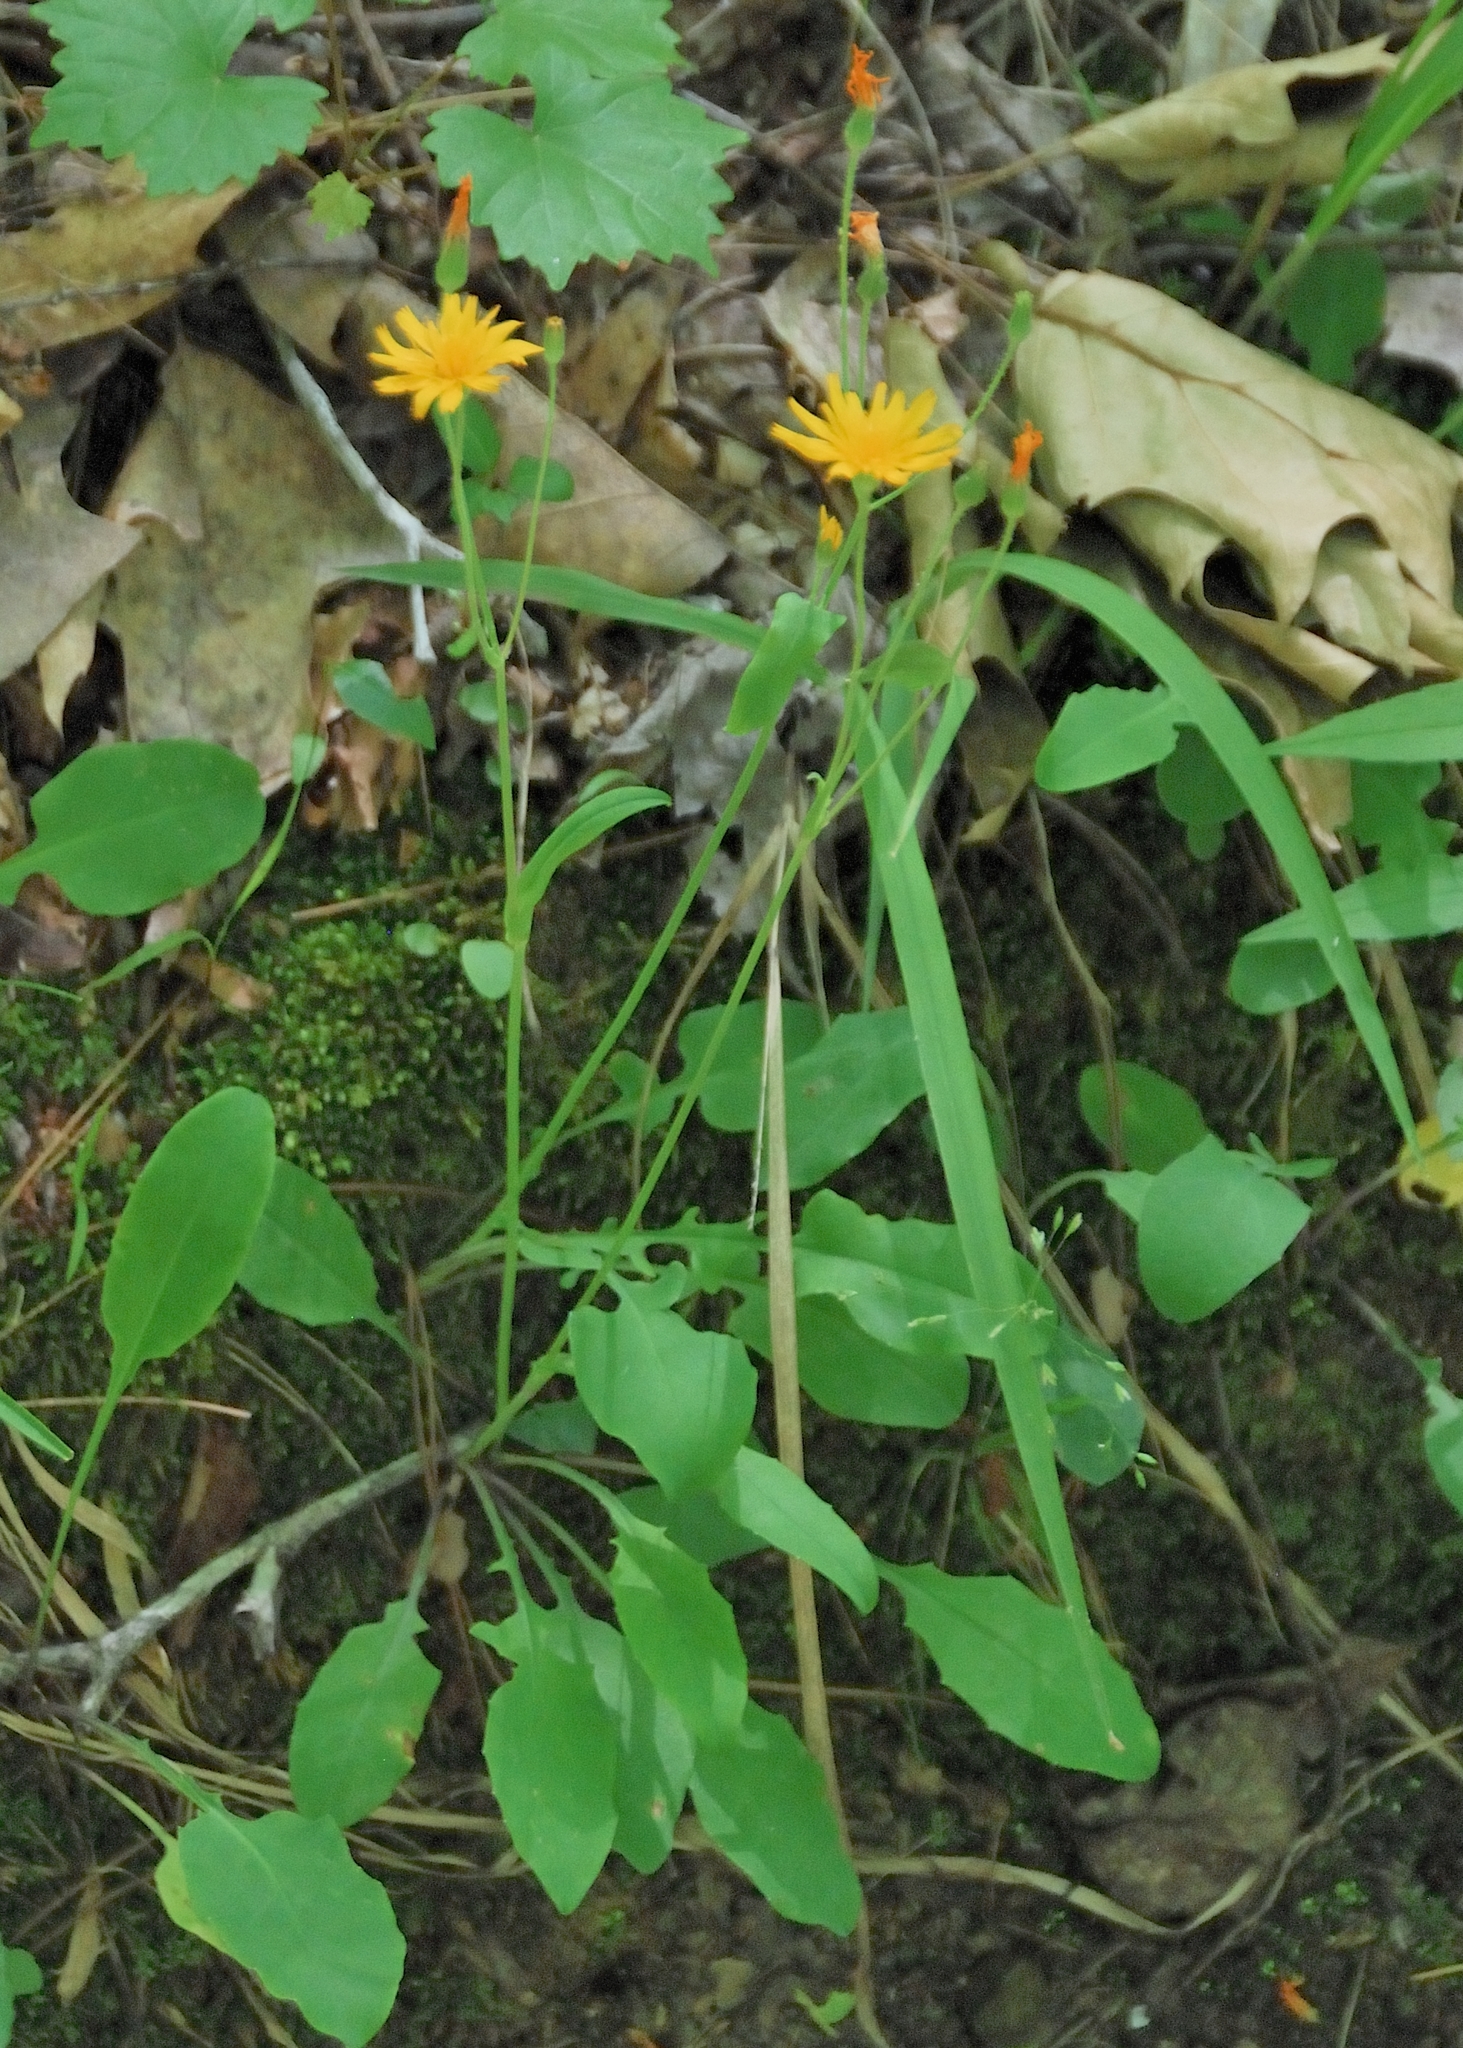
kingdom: Plantae
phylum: Tracheophyta
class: Magnoliopsida
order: Asterales
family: Asteraceae
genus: Krigia
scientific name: Krigia biflora
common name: Orange dwarf-dandelion
